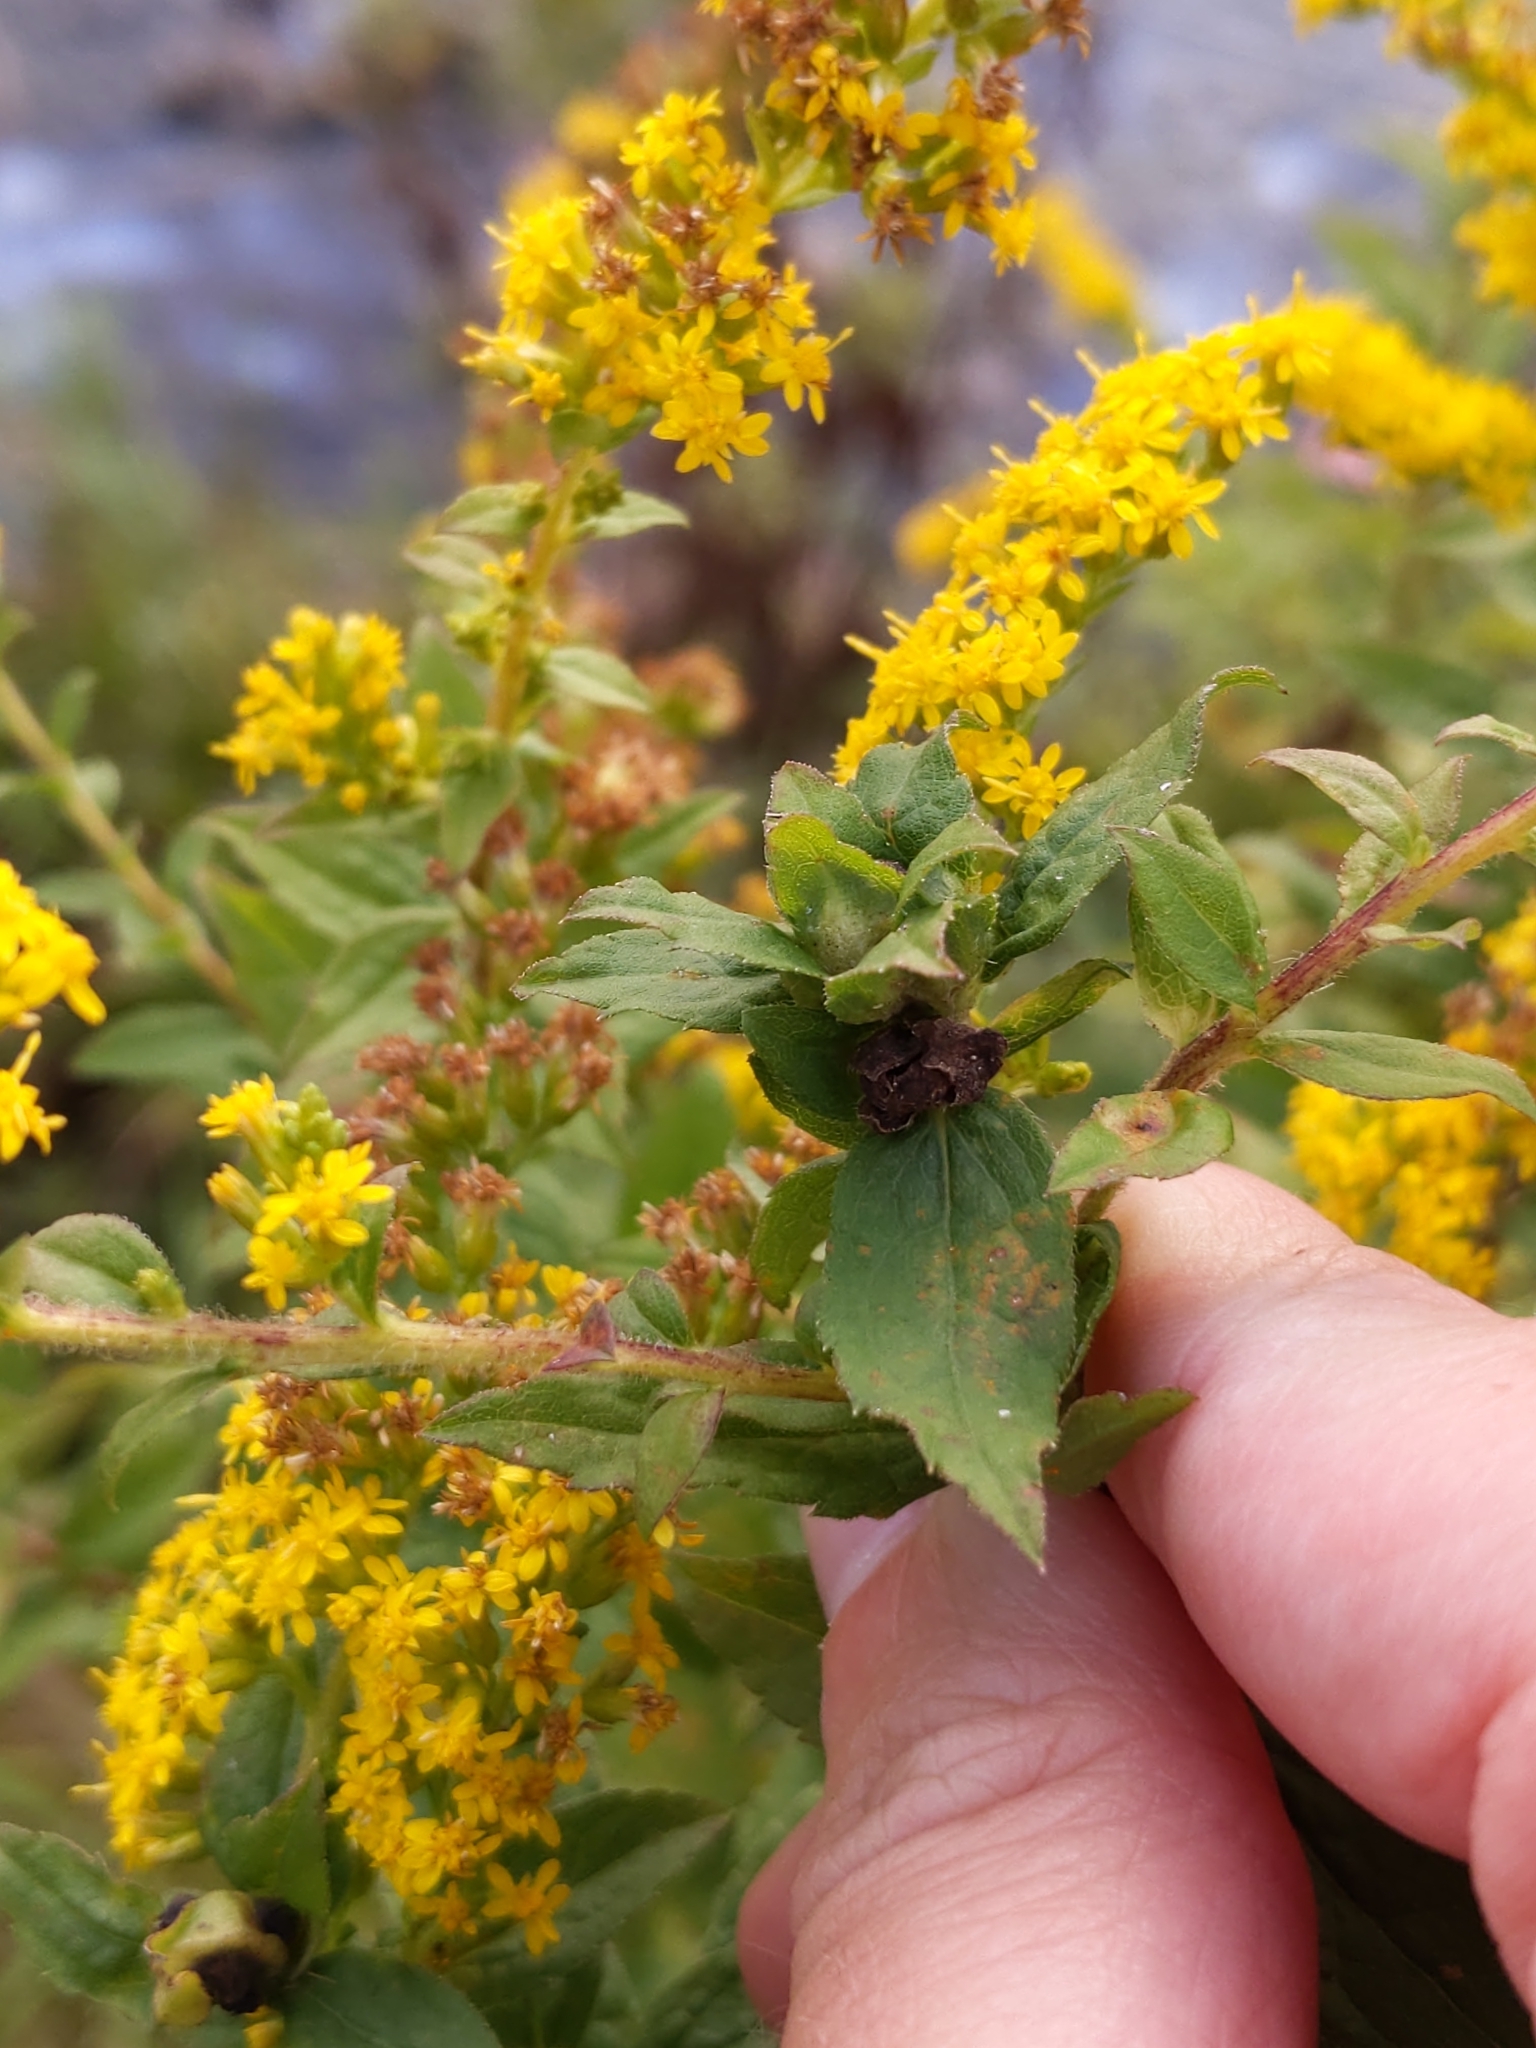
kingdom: Animalia
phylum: Arthropoda
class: Insecta
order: Diptera
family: Cecidomyiidae
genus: Dasineura
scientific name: Dasineura folliculi
